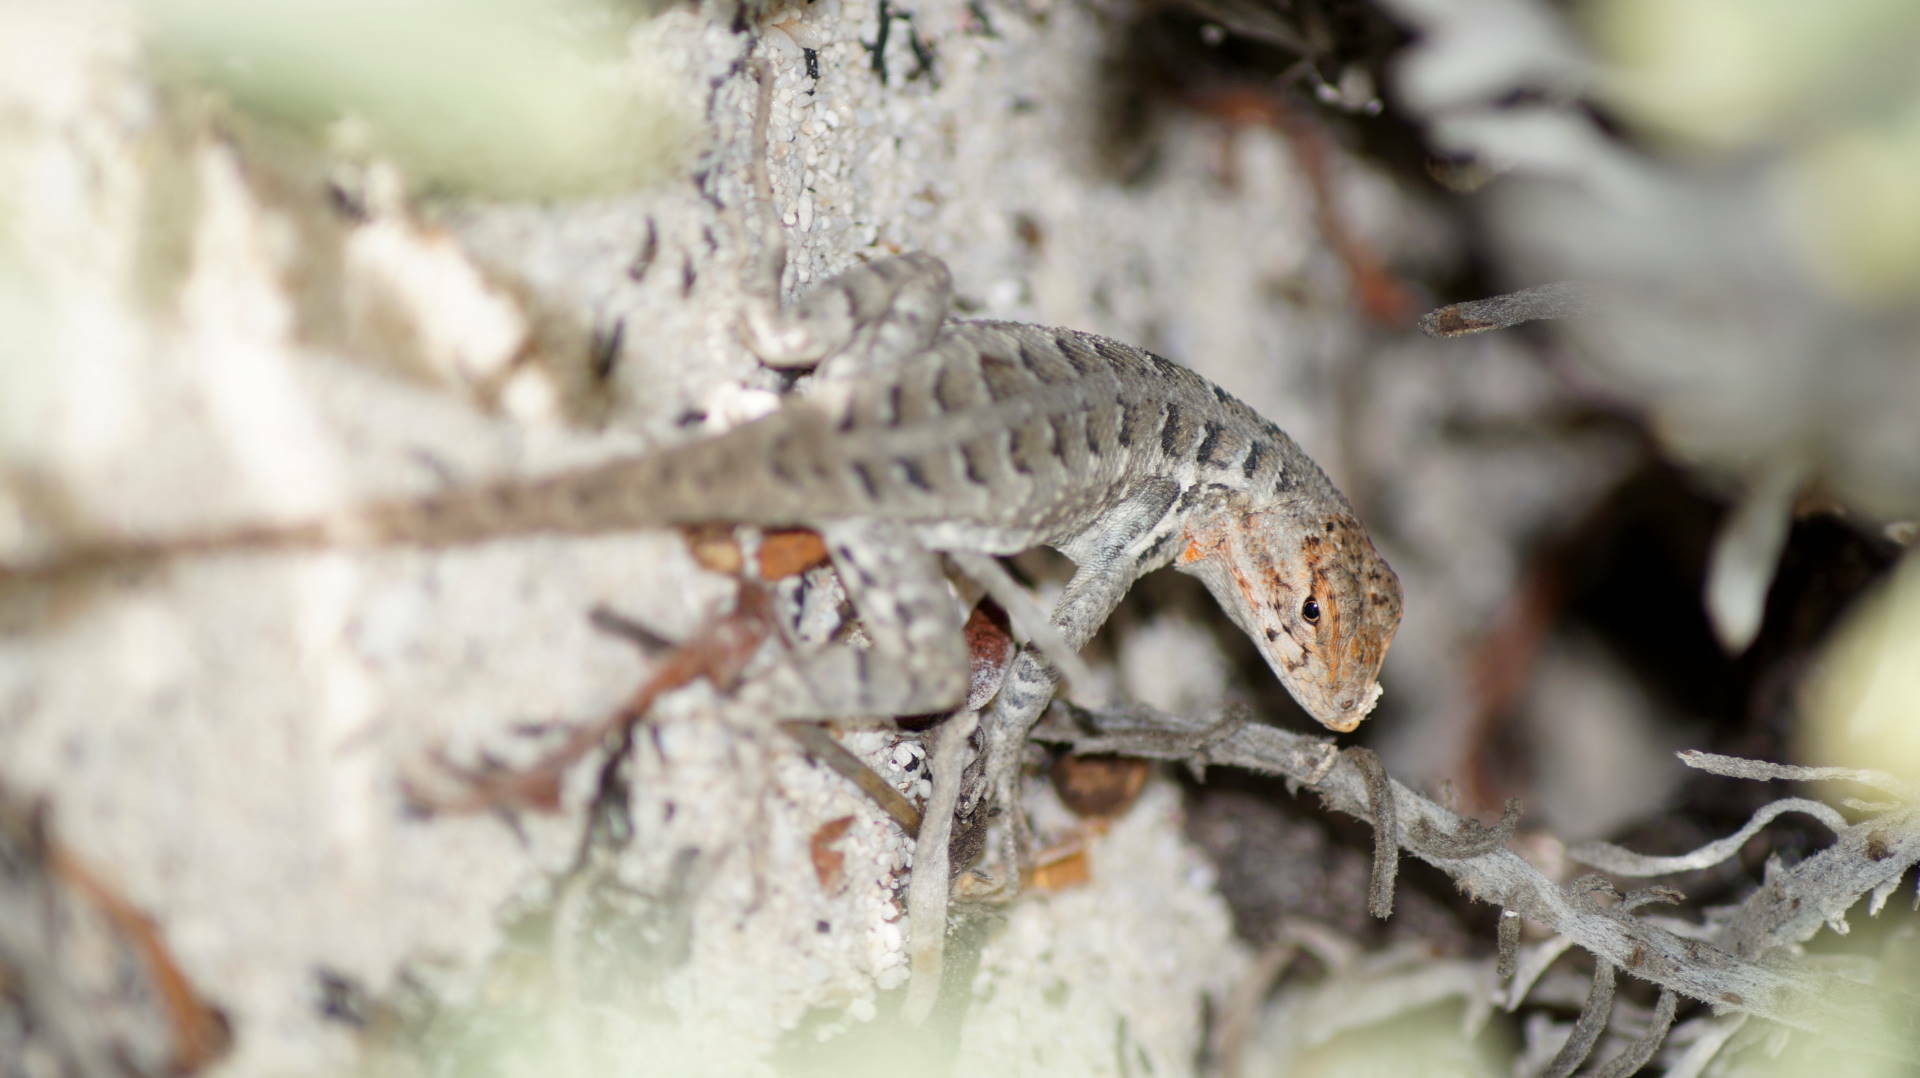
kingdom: Animalia
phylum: Chordata
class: Squamata
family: Phrynosomatidae
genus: Sceloporus
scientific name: Sceloporus cozumelae
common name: Cozumel spiny lizard
